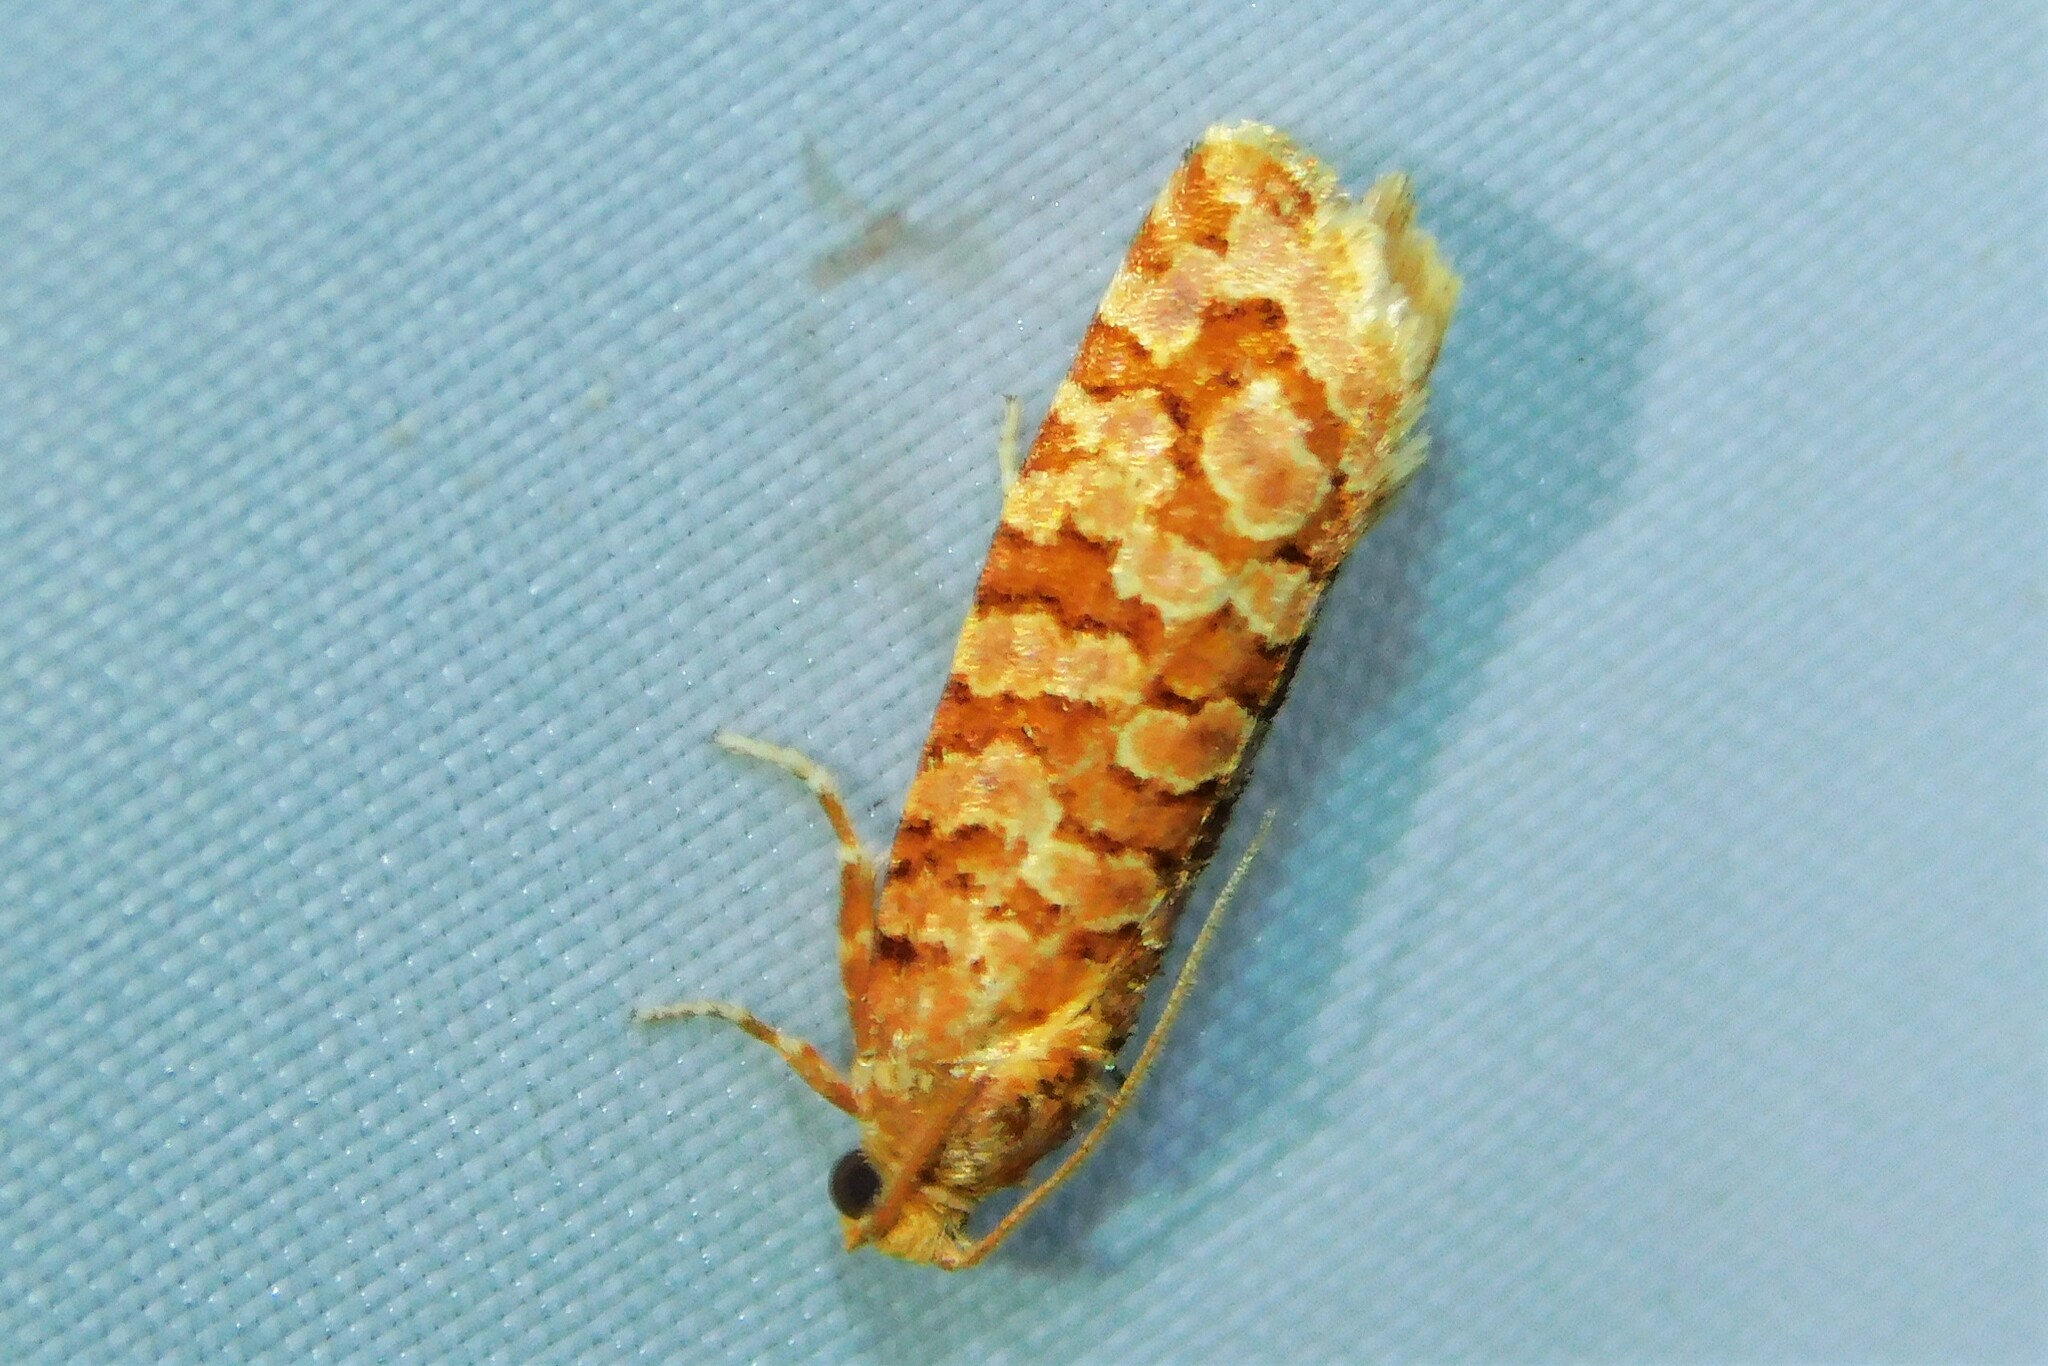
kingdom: Animalia
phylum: Arthropoda
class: Insecta
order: Lepidoptera
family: Tortricidae
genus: Lozotaeniodes
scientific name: Lozotaeniodes formosana
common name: Orange pine twist
